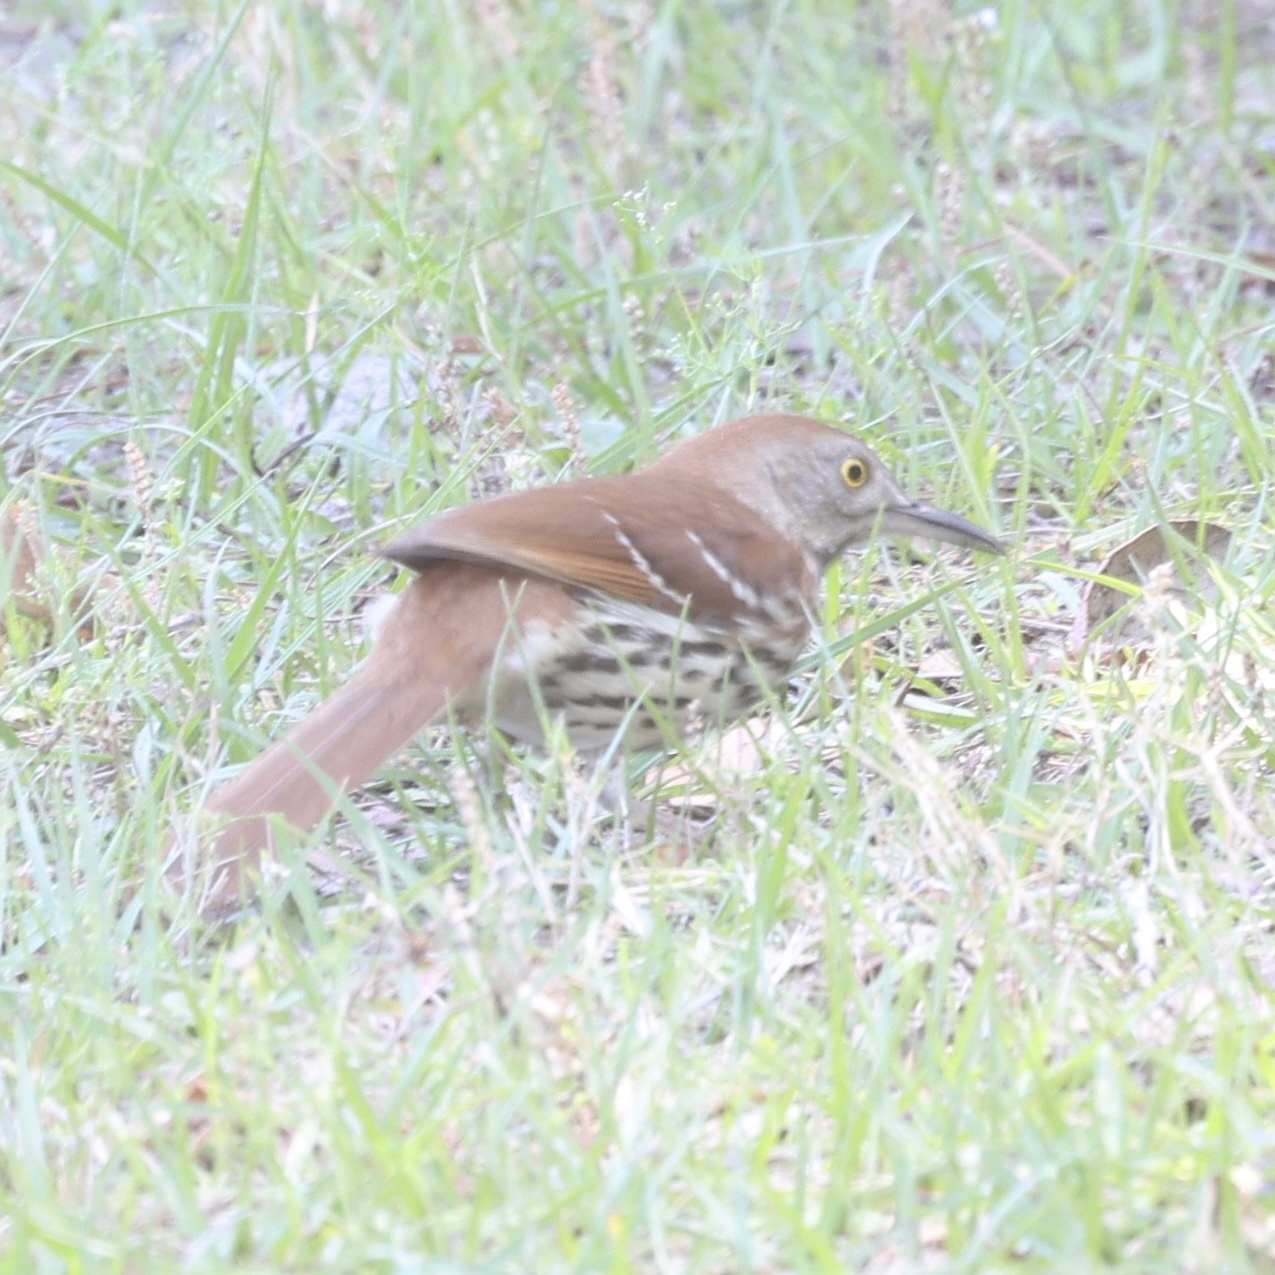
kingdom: Animalia
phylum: Chordata
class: Aves
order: Passeriformes
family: Mimidae
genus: Toxostoma
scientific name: Toxostoma rufum
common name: Brown thrasher
